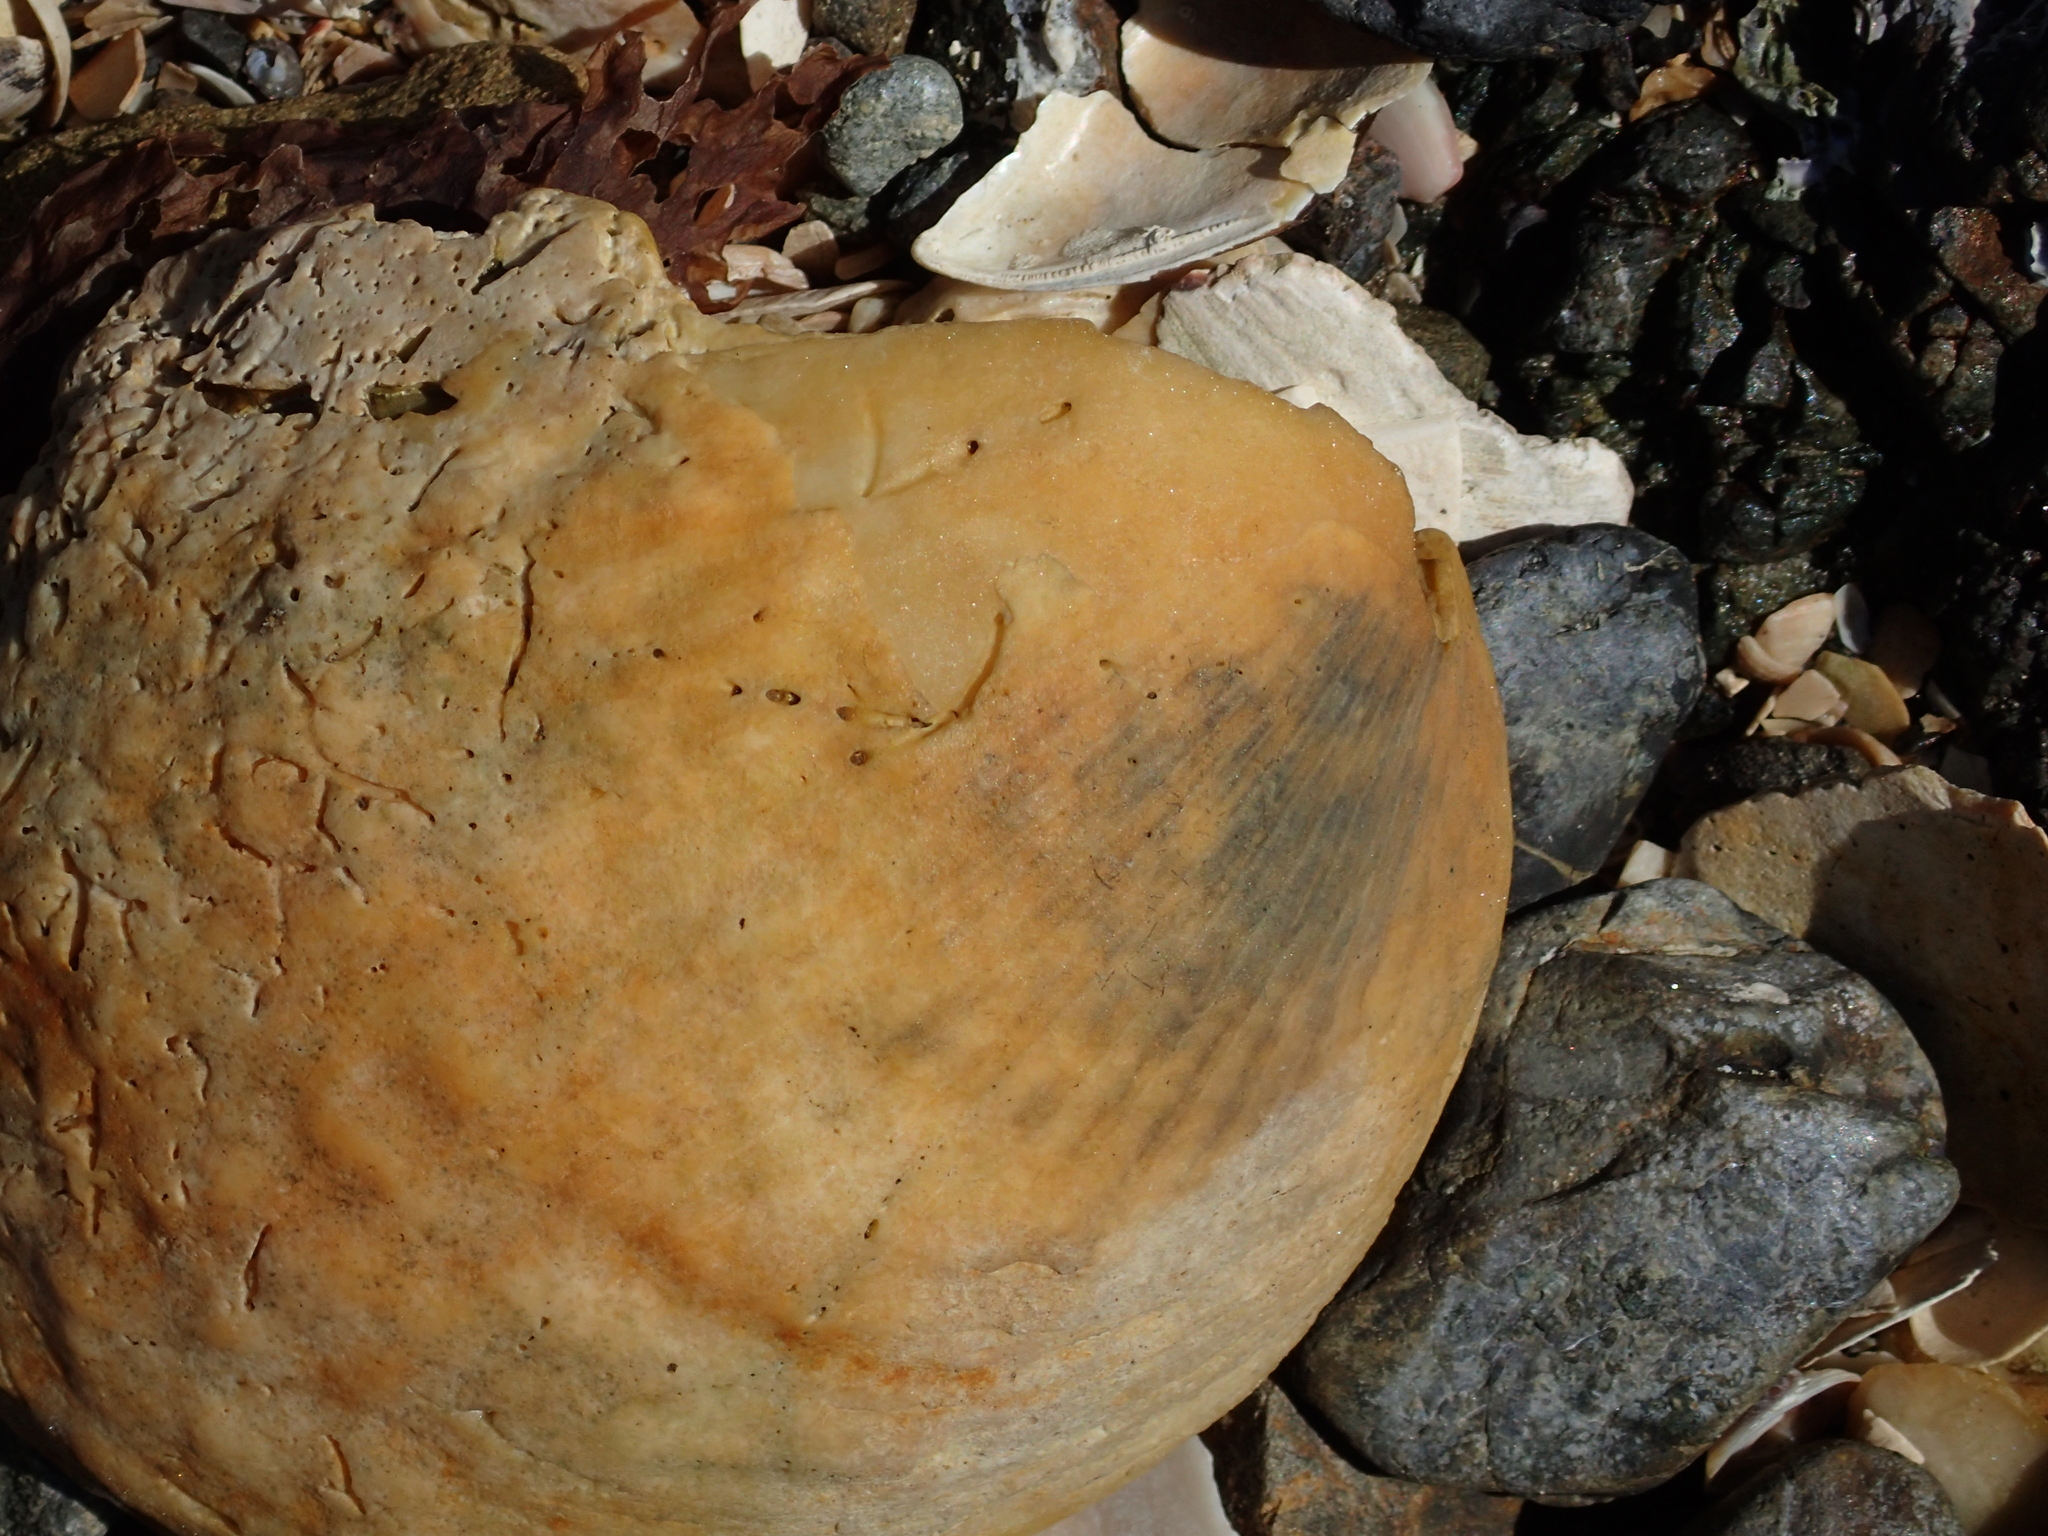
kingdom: Animalia
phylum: Mollusca
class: Bivalvia
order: Arcida
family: Glycymerididae
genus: Tucetona
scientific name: Tucetona laticostata
